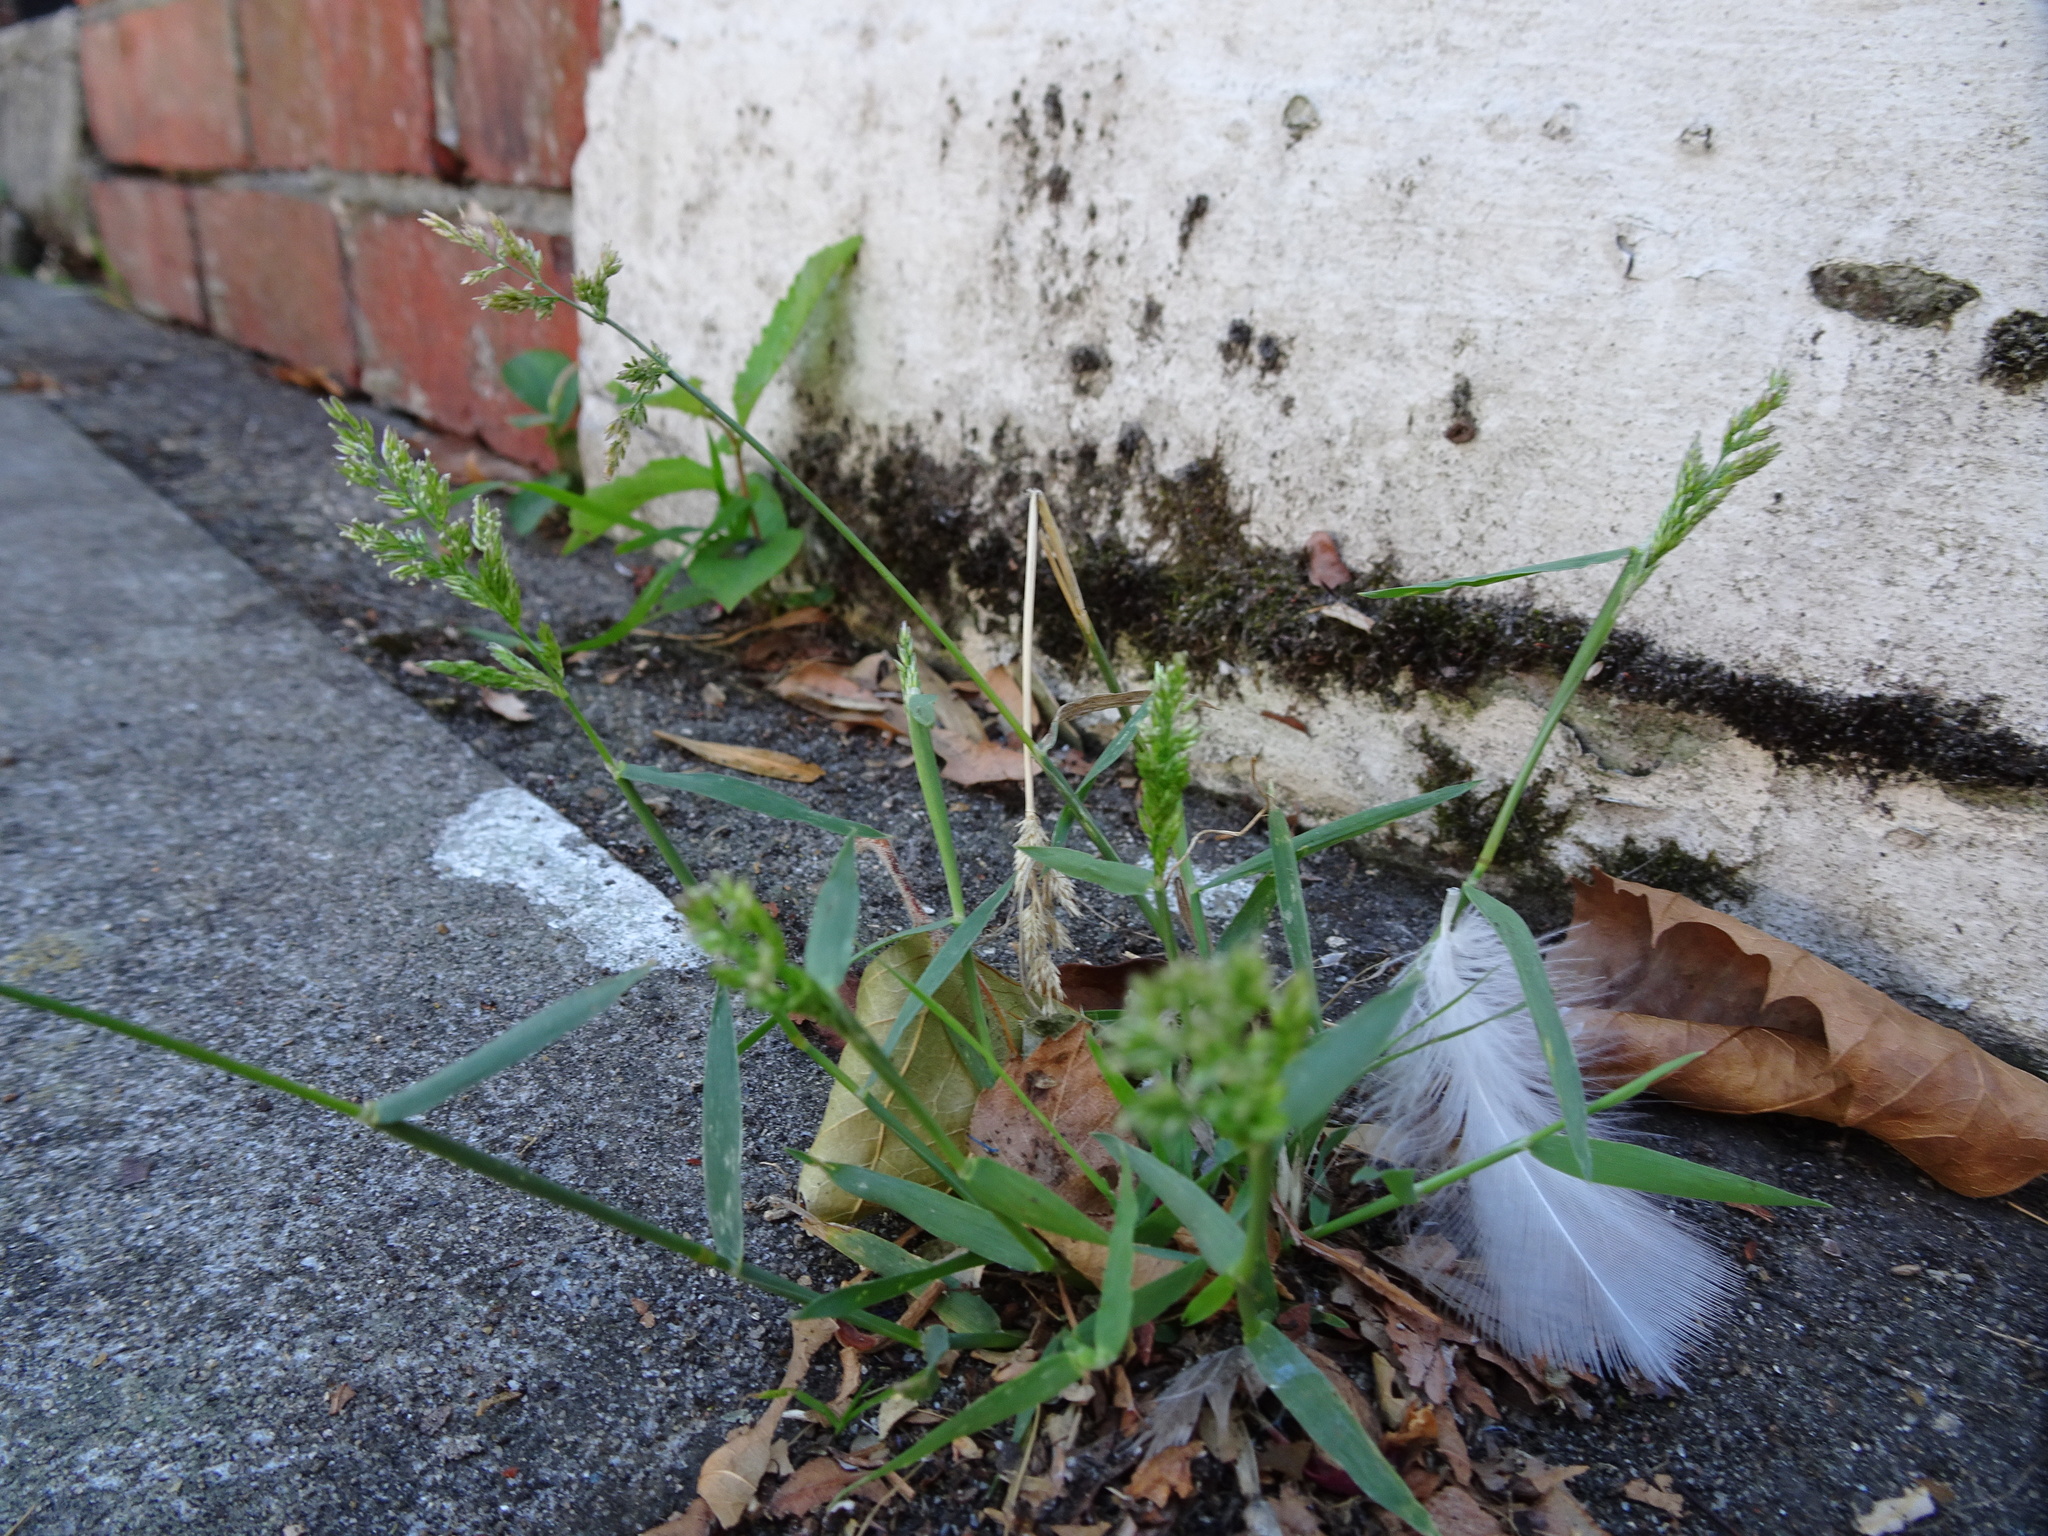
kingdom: Plantae
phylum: Tracheophyta
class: Liliopsida
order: Poales
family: Poaceae
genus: Polypogon
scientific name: Polypogon viridis
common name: Water bent
